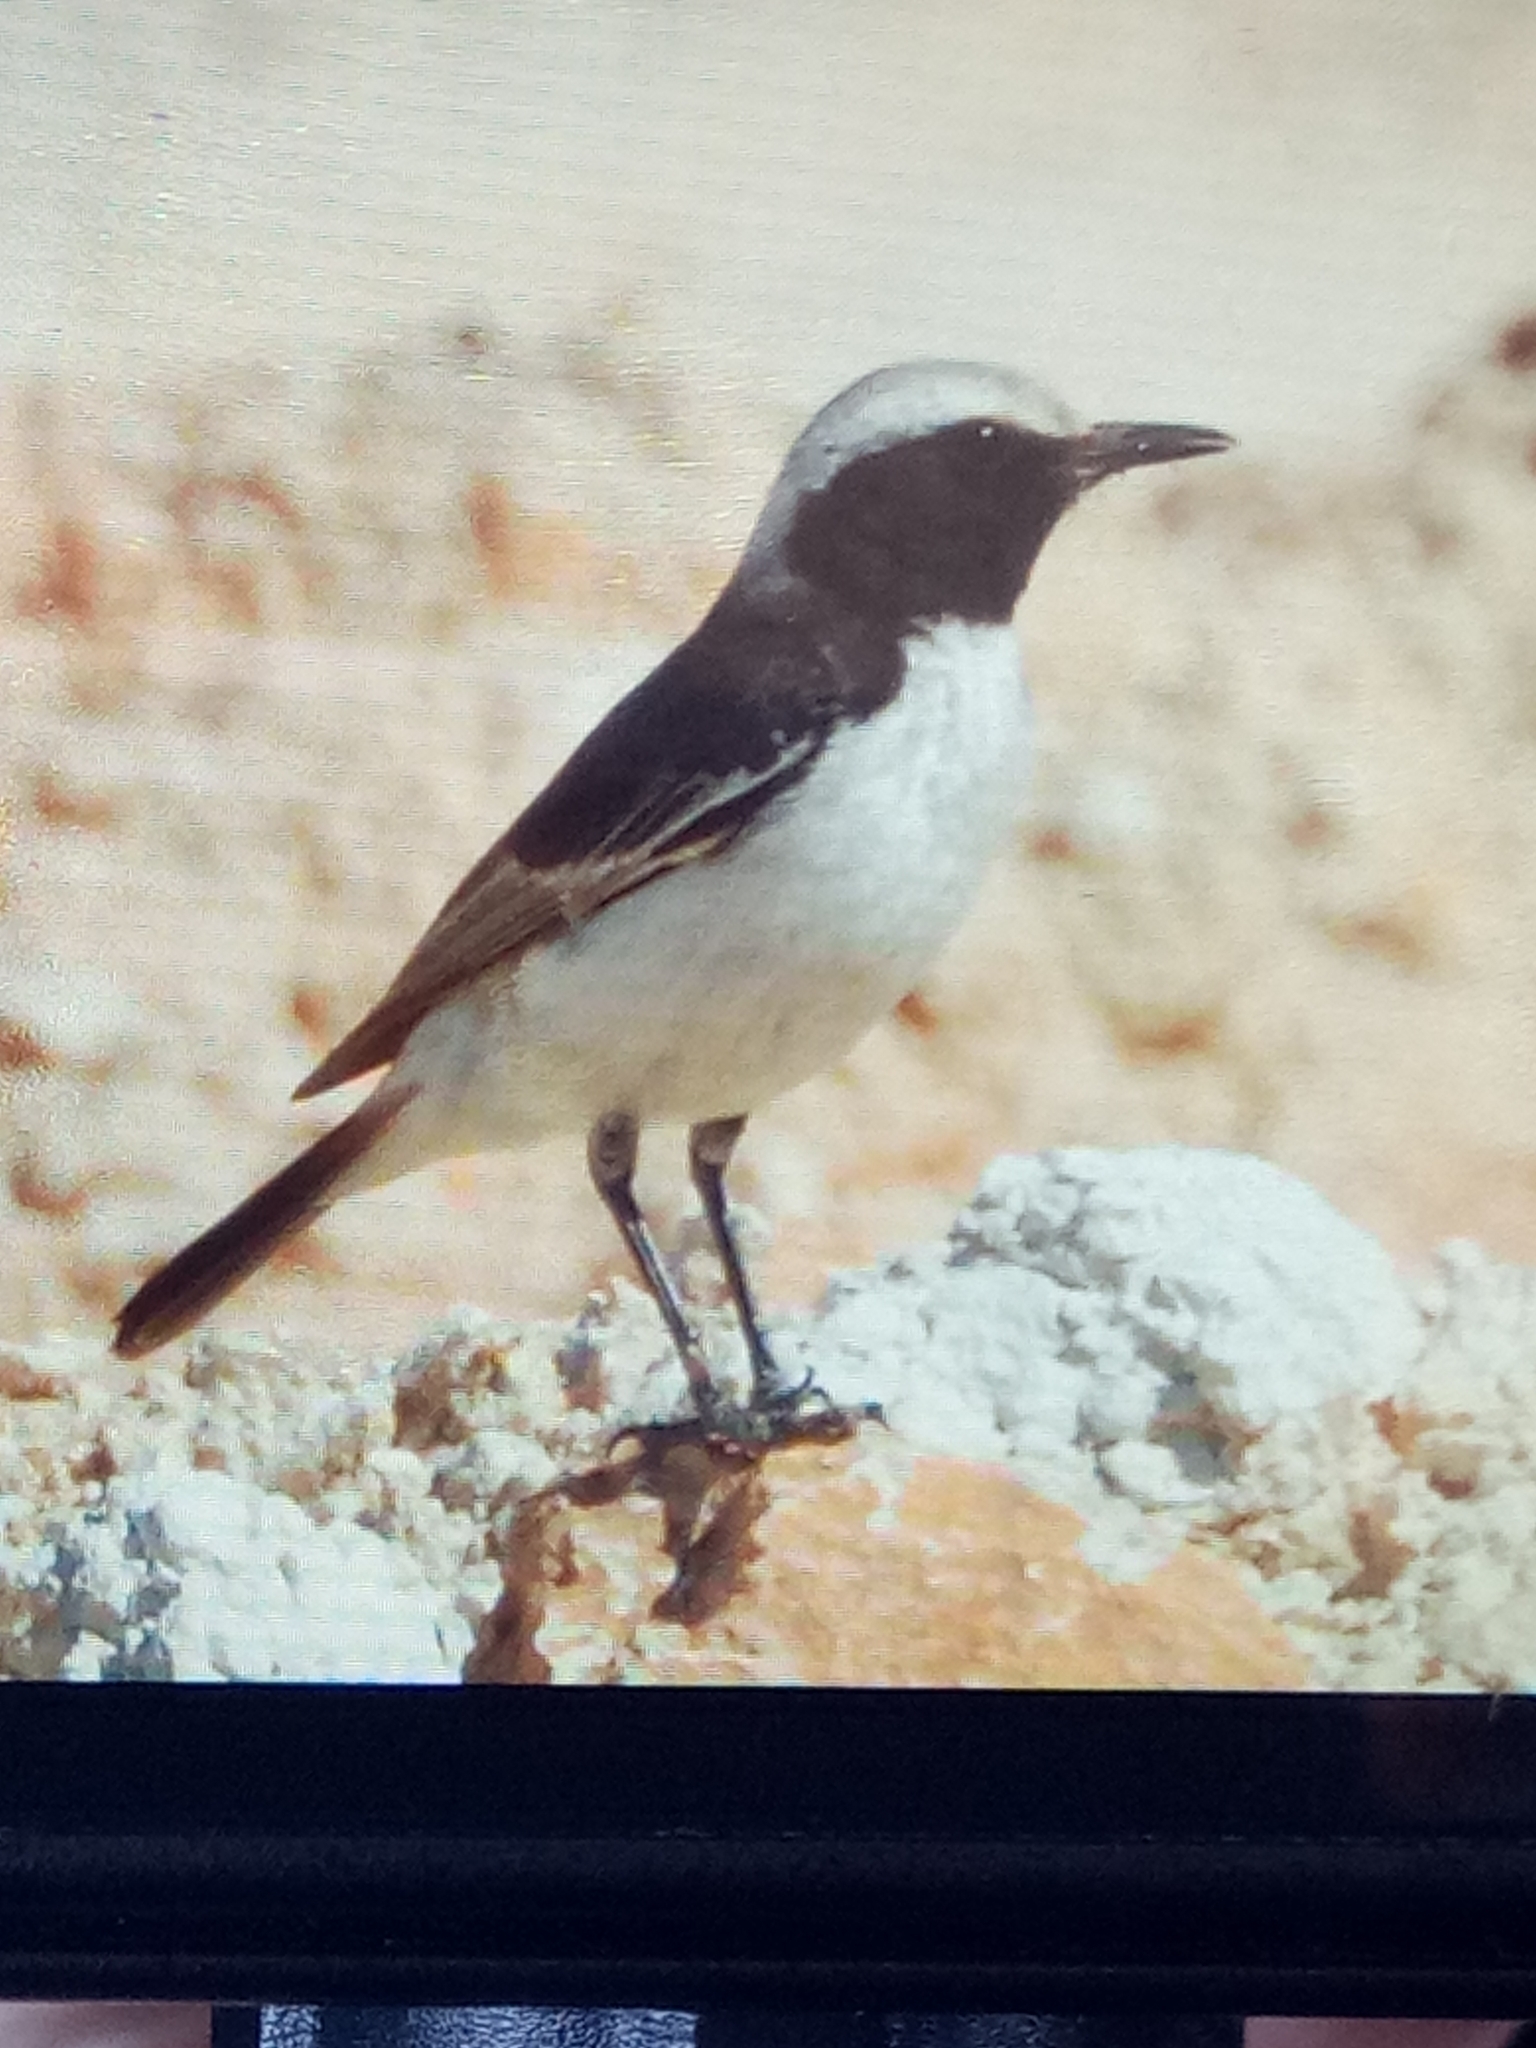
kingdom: Animalia
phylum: Chordata
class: Aves
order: Passeriformes
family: Muscicapidae
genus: Oenanthe
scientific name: Oenanthe moesta
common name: Red-rumped wheatear
